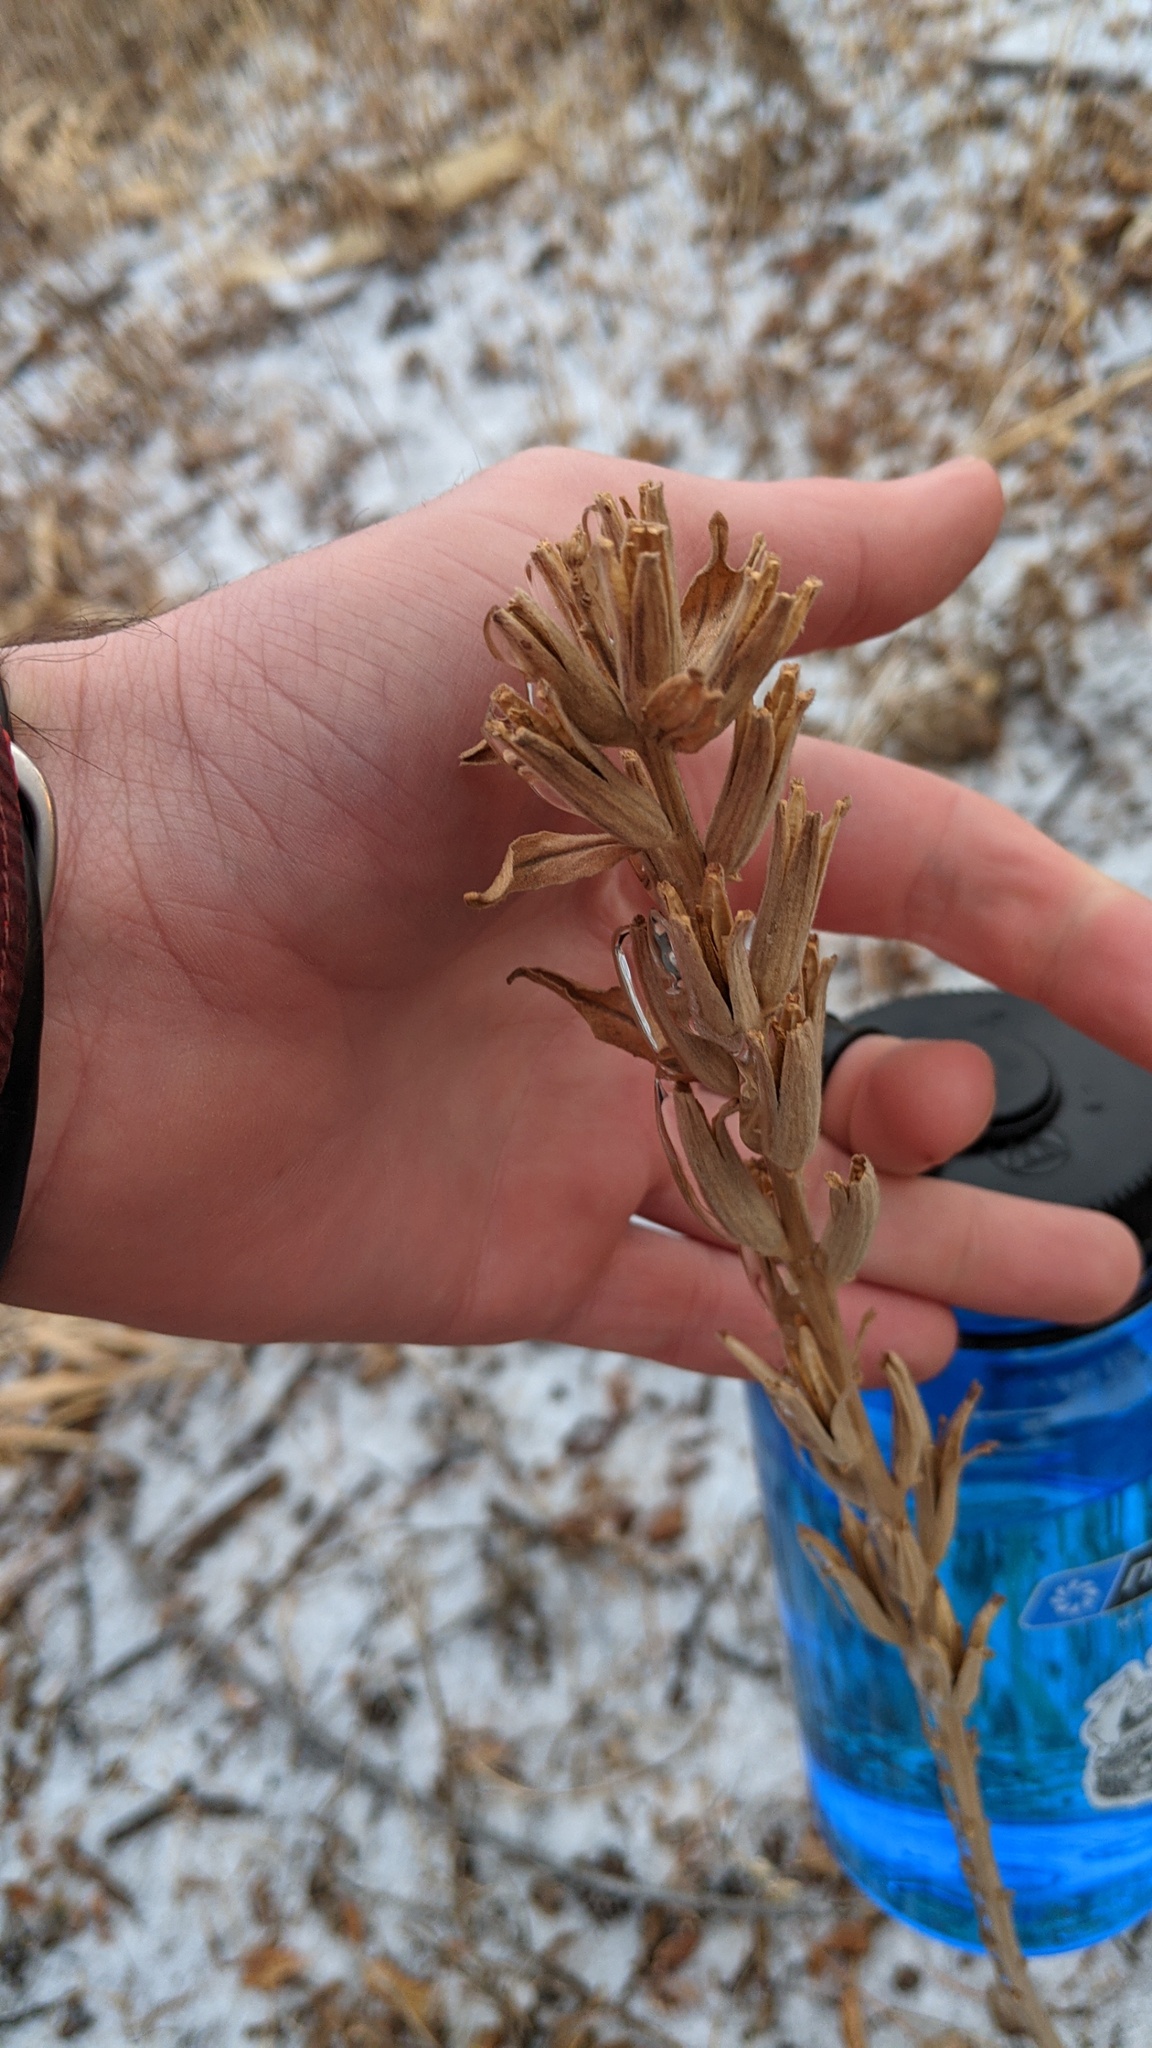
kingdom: Plantae
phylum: Tracheophyta
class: Magnoliopsida
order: Myrtales
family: Onagraceae
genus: Oenothera
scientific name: Oenothera biennis
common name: Common evening-primrose
